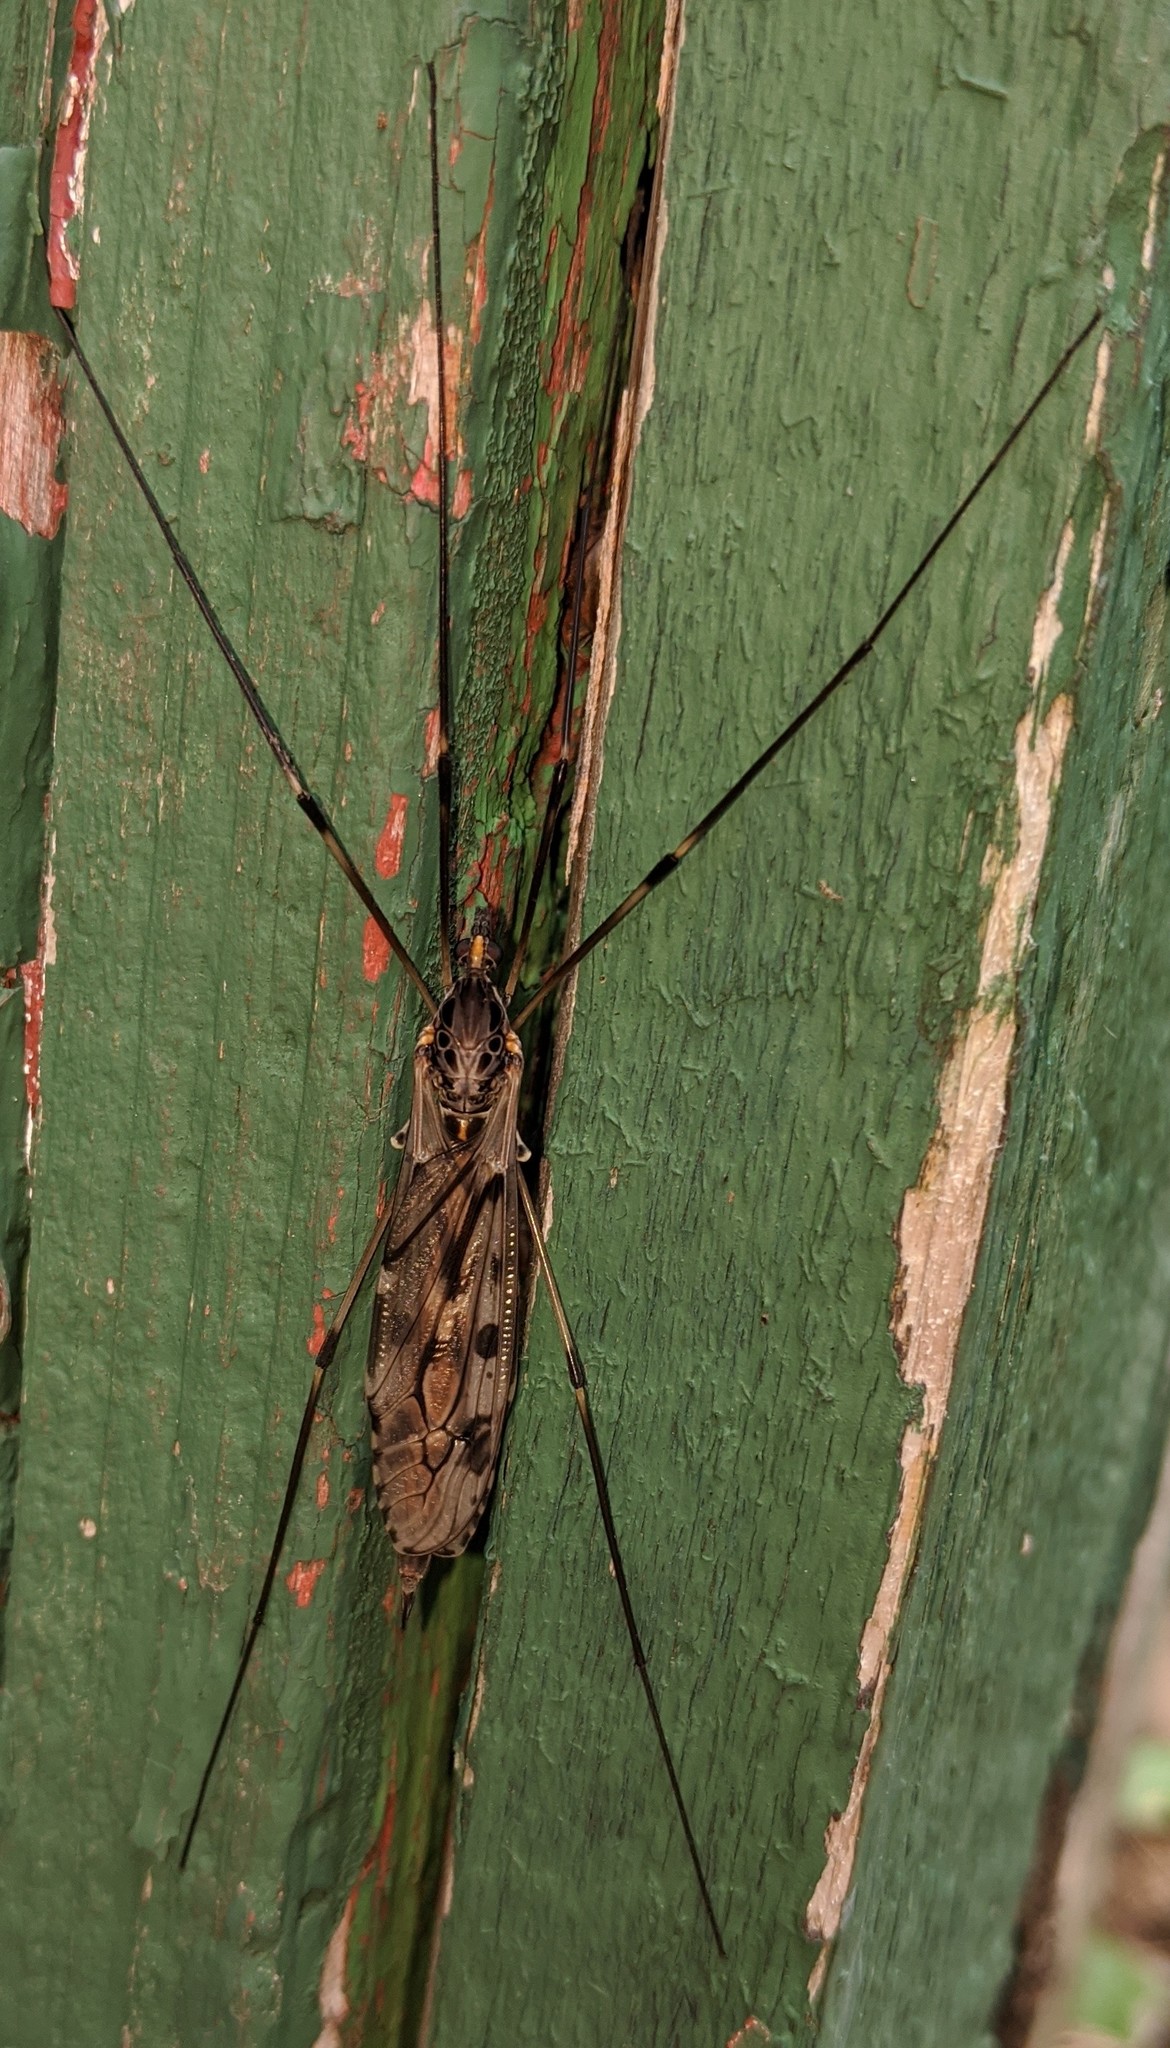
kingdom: Animalia
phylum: Arthropoda
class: Insecta
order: Diptera
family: Tipulidae
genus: Tipula
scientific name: Tipula abdominalis
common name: Giant crane fly
